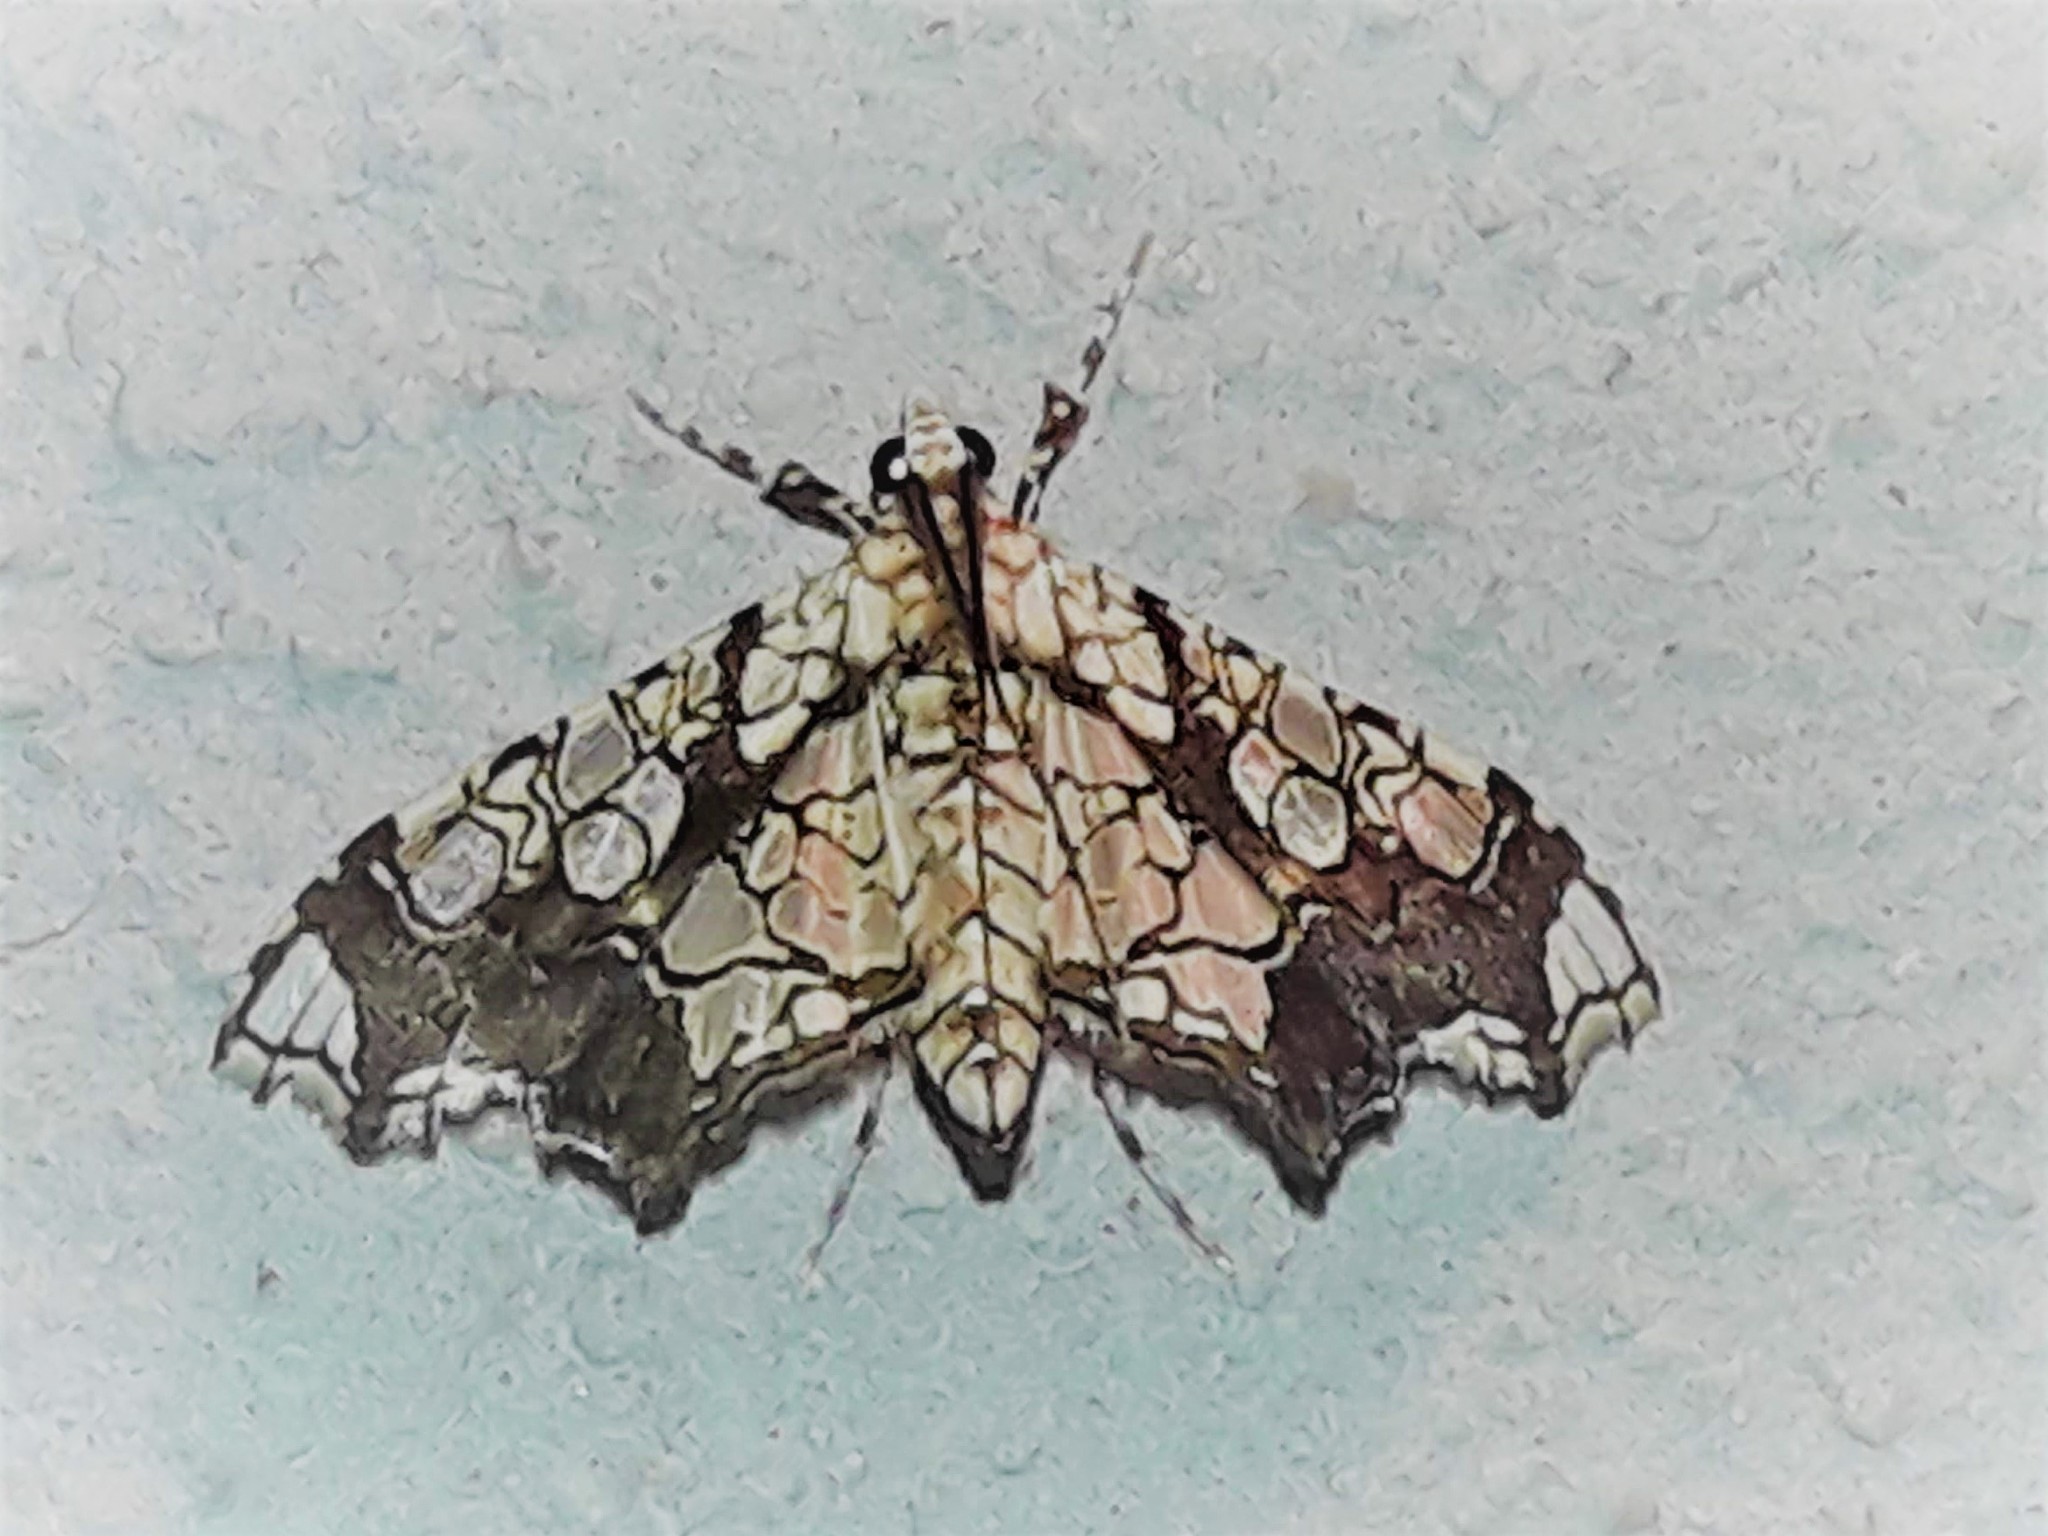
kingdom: Animalia
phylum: Arthropoda
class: Insecta
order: Lepidoptera
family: Crambidae
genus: Sisyracera
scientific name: Sisyracera subulalis
